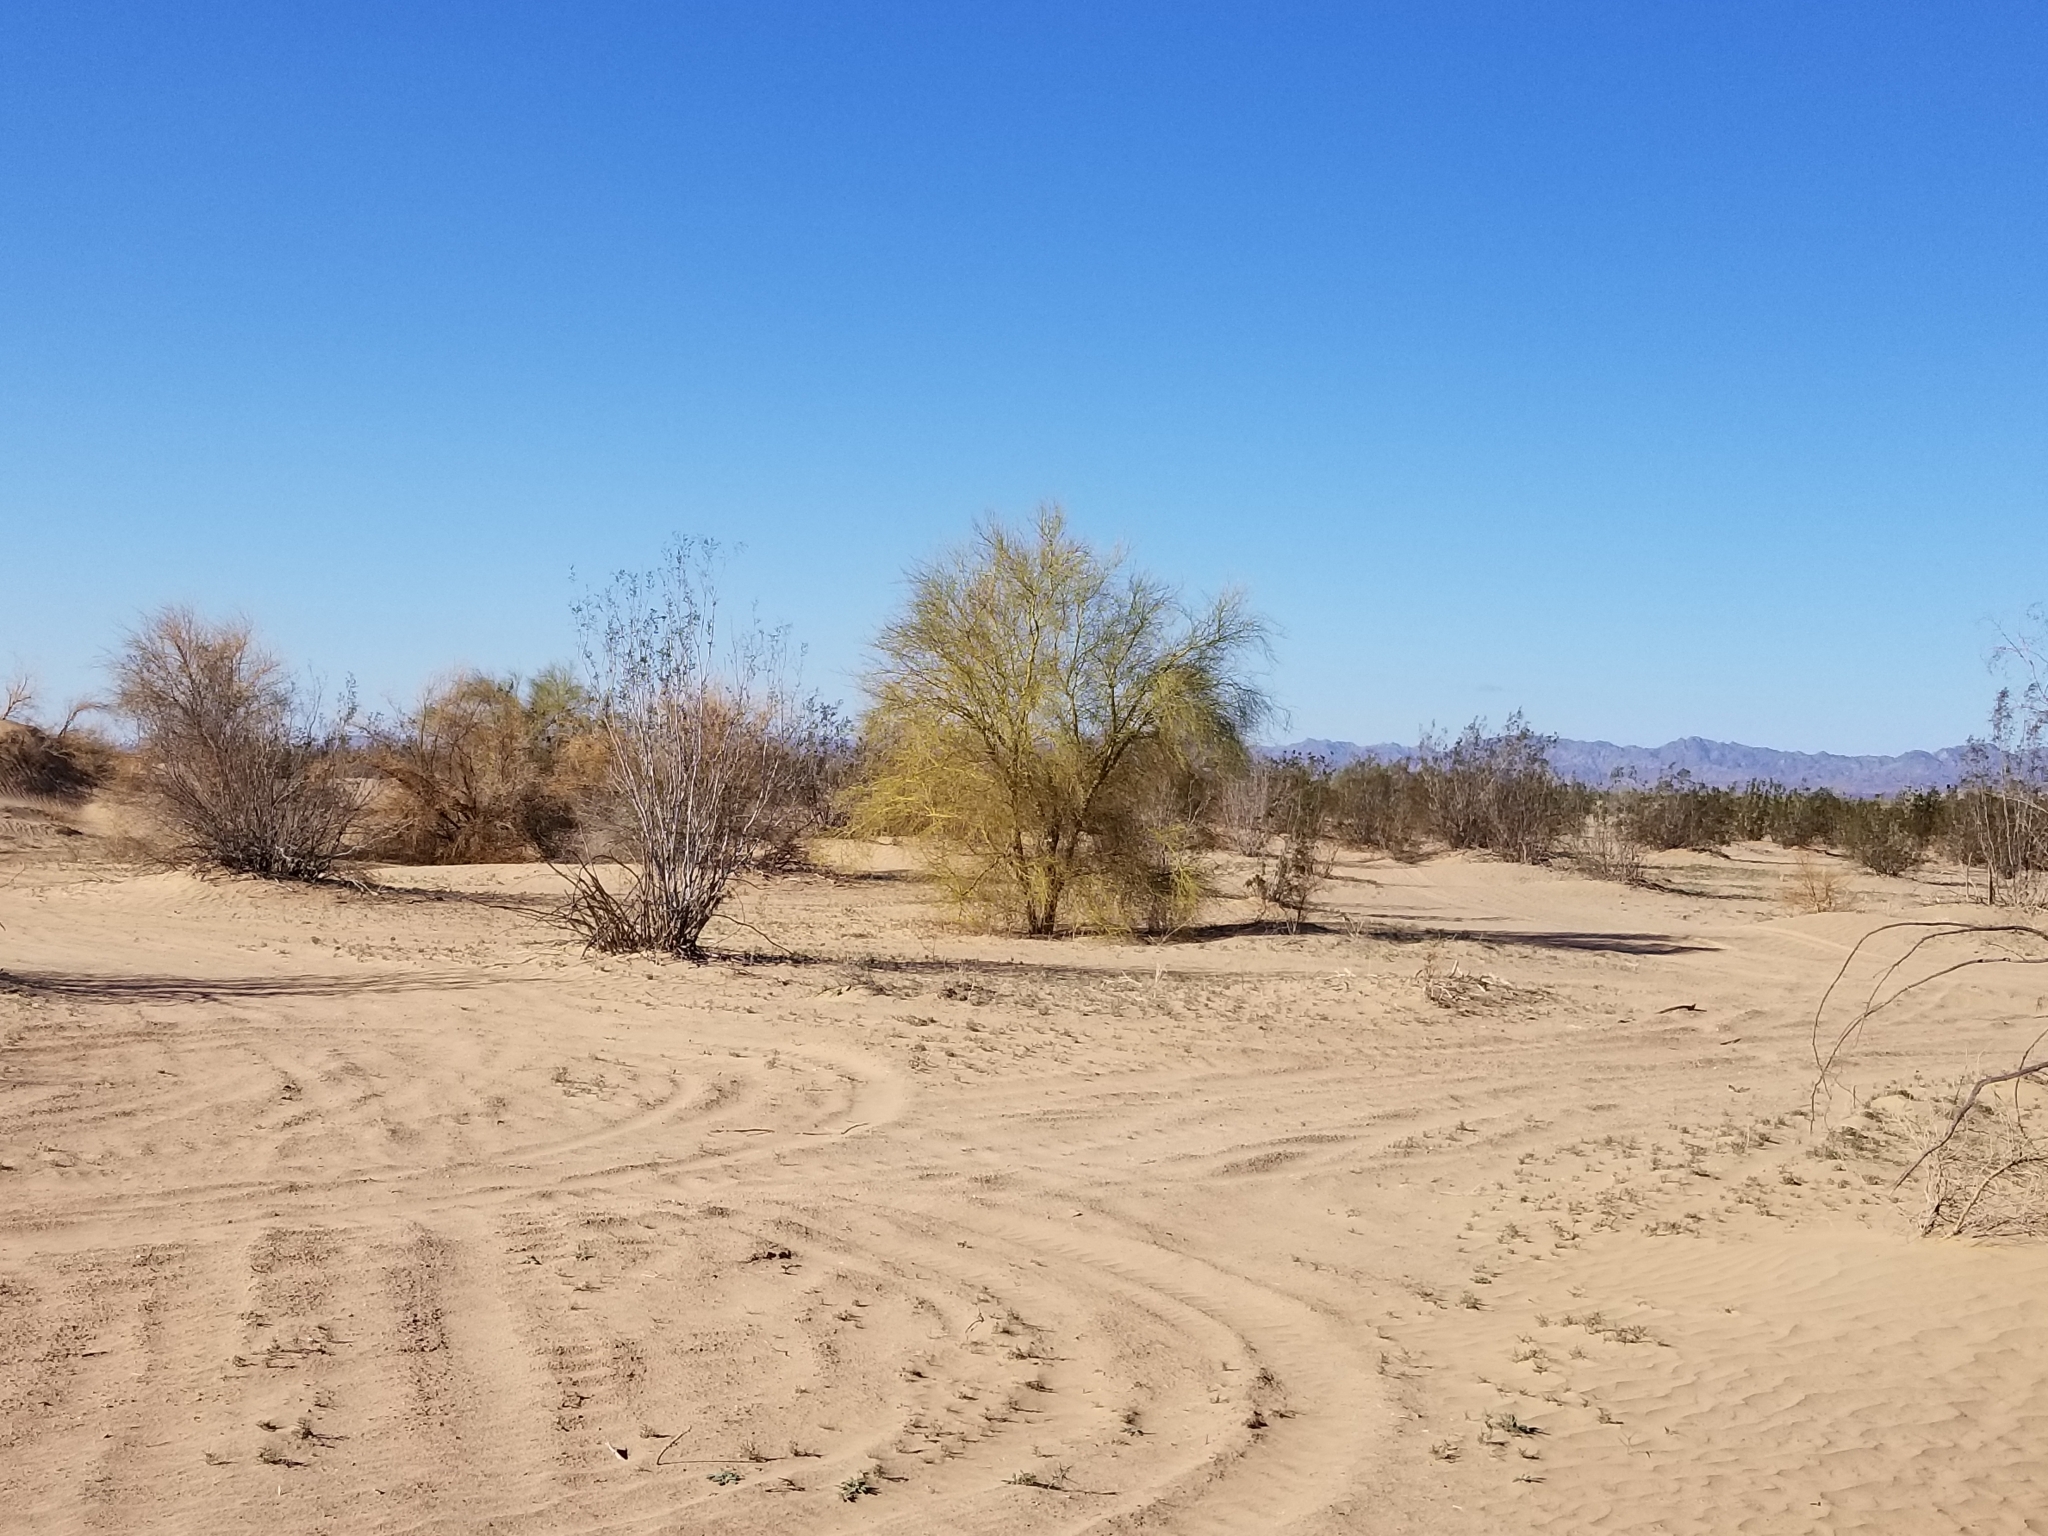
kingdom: Plantae
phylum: Tracheophyta
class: Magnoliopsida
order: Fabales
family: Fabaceae
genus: Parkinsonia
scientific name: Parkinsonia florida
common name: Blue paloverde
